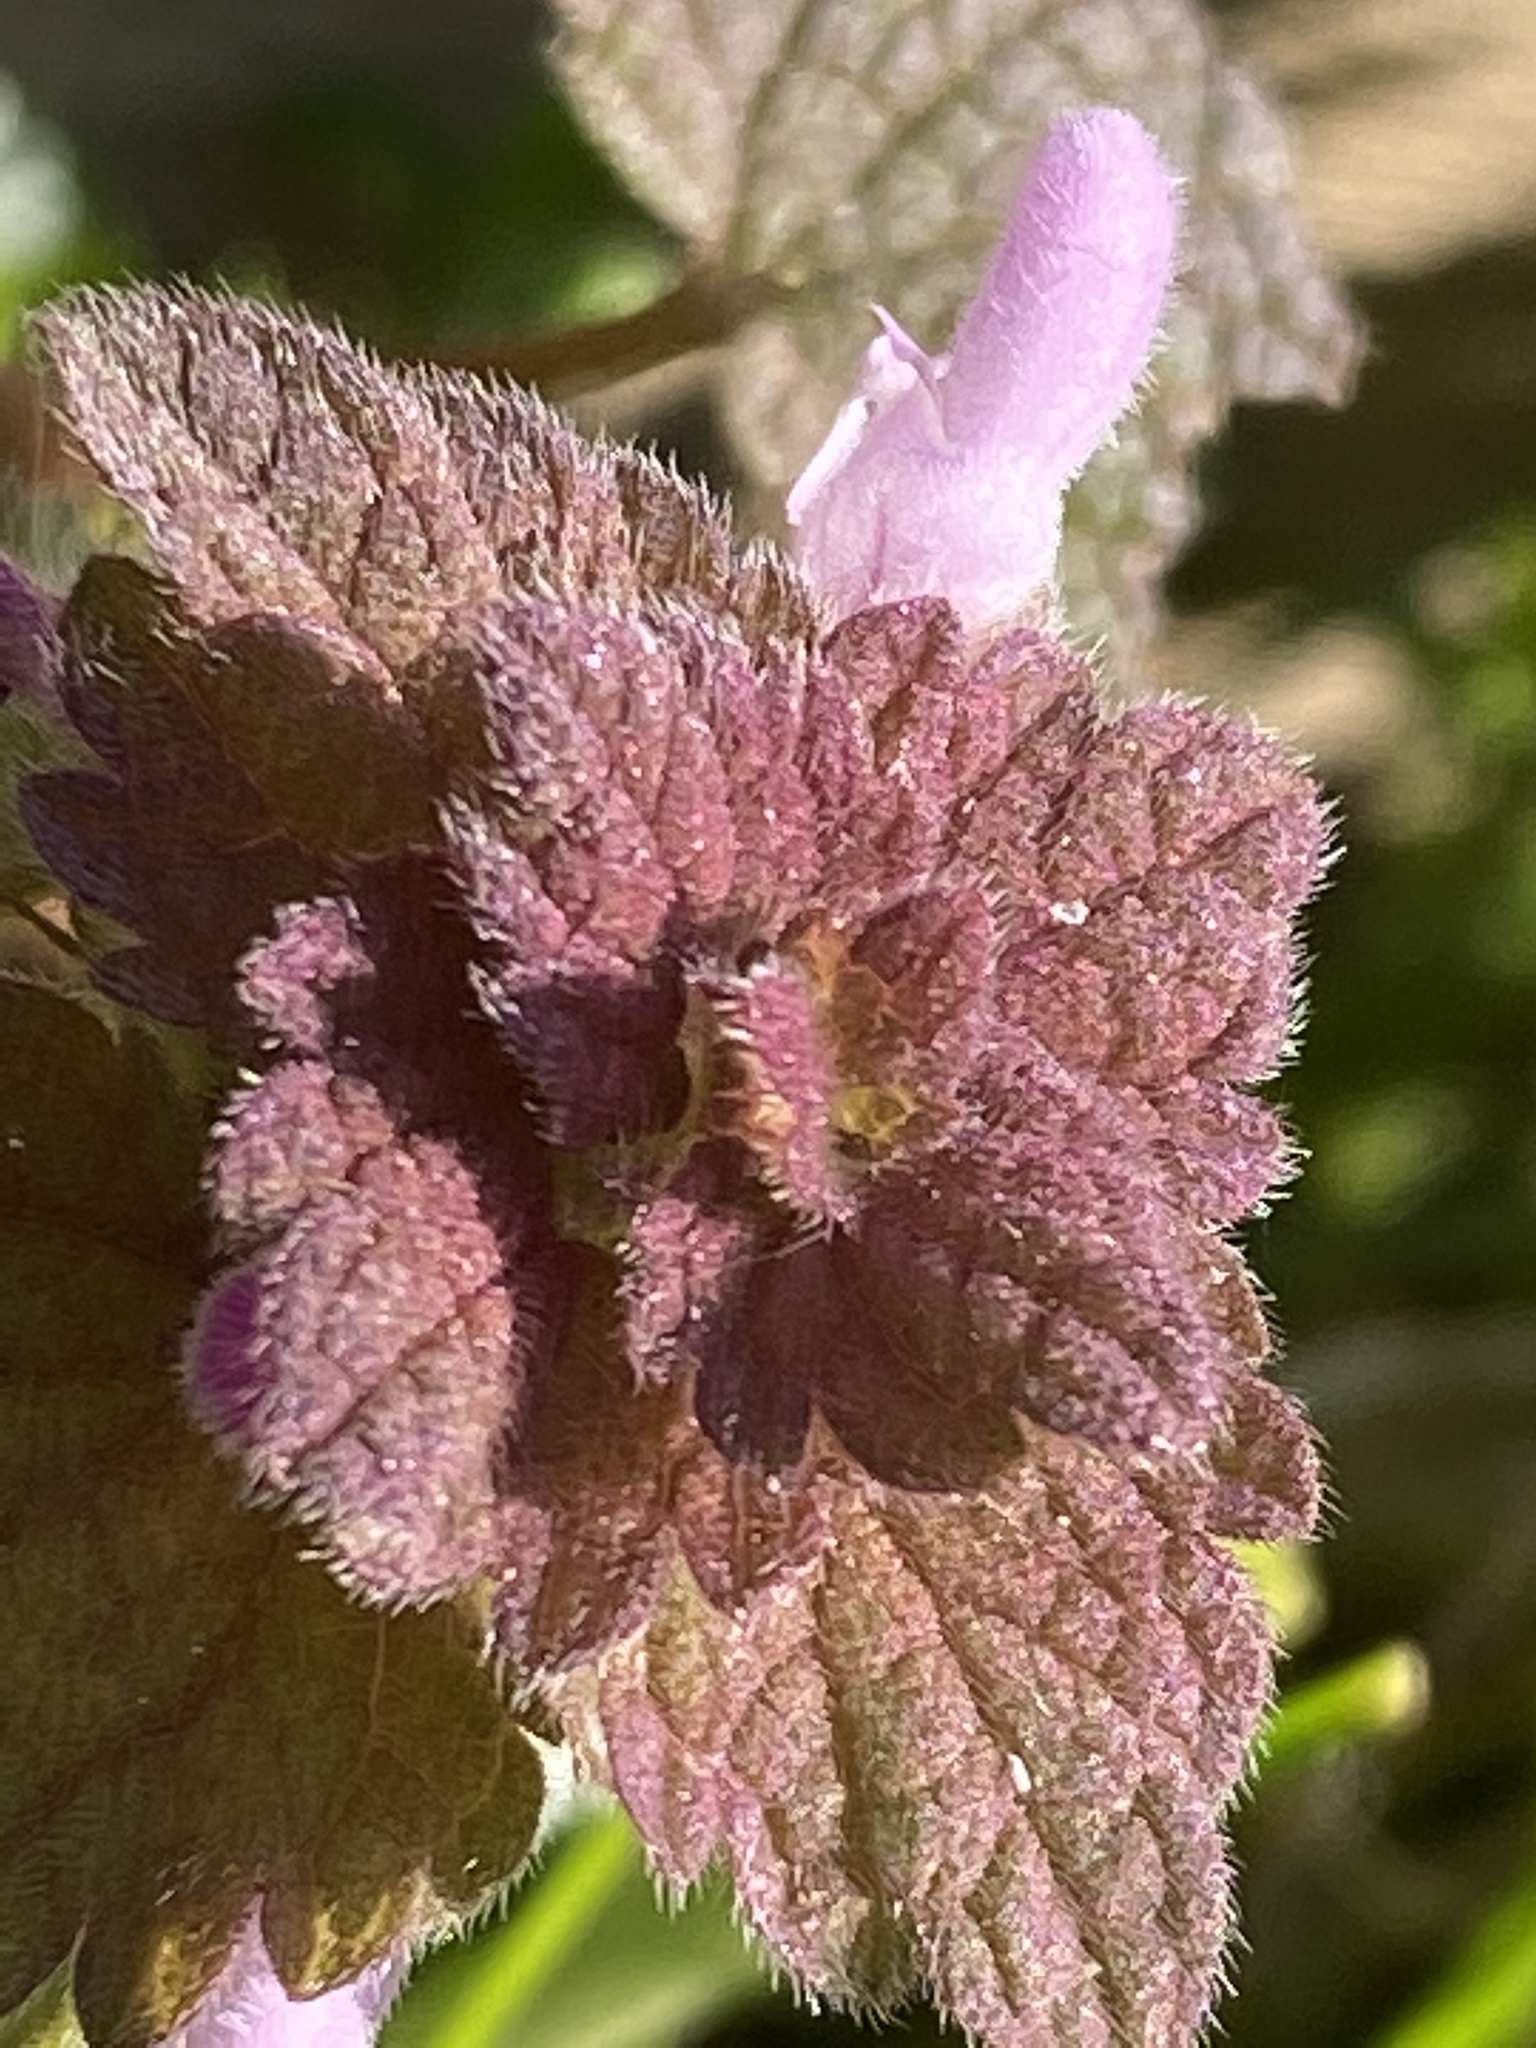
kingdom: Plantae
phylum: Tracheophyta
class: Magnoliopsida
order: Lamiales
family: Lamiaceae
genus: Lamium
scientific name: Lamium purpureum
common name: Red dead-nettle
